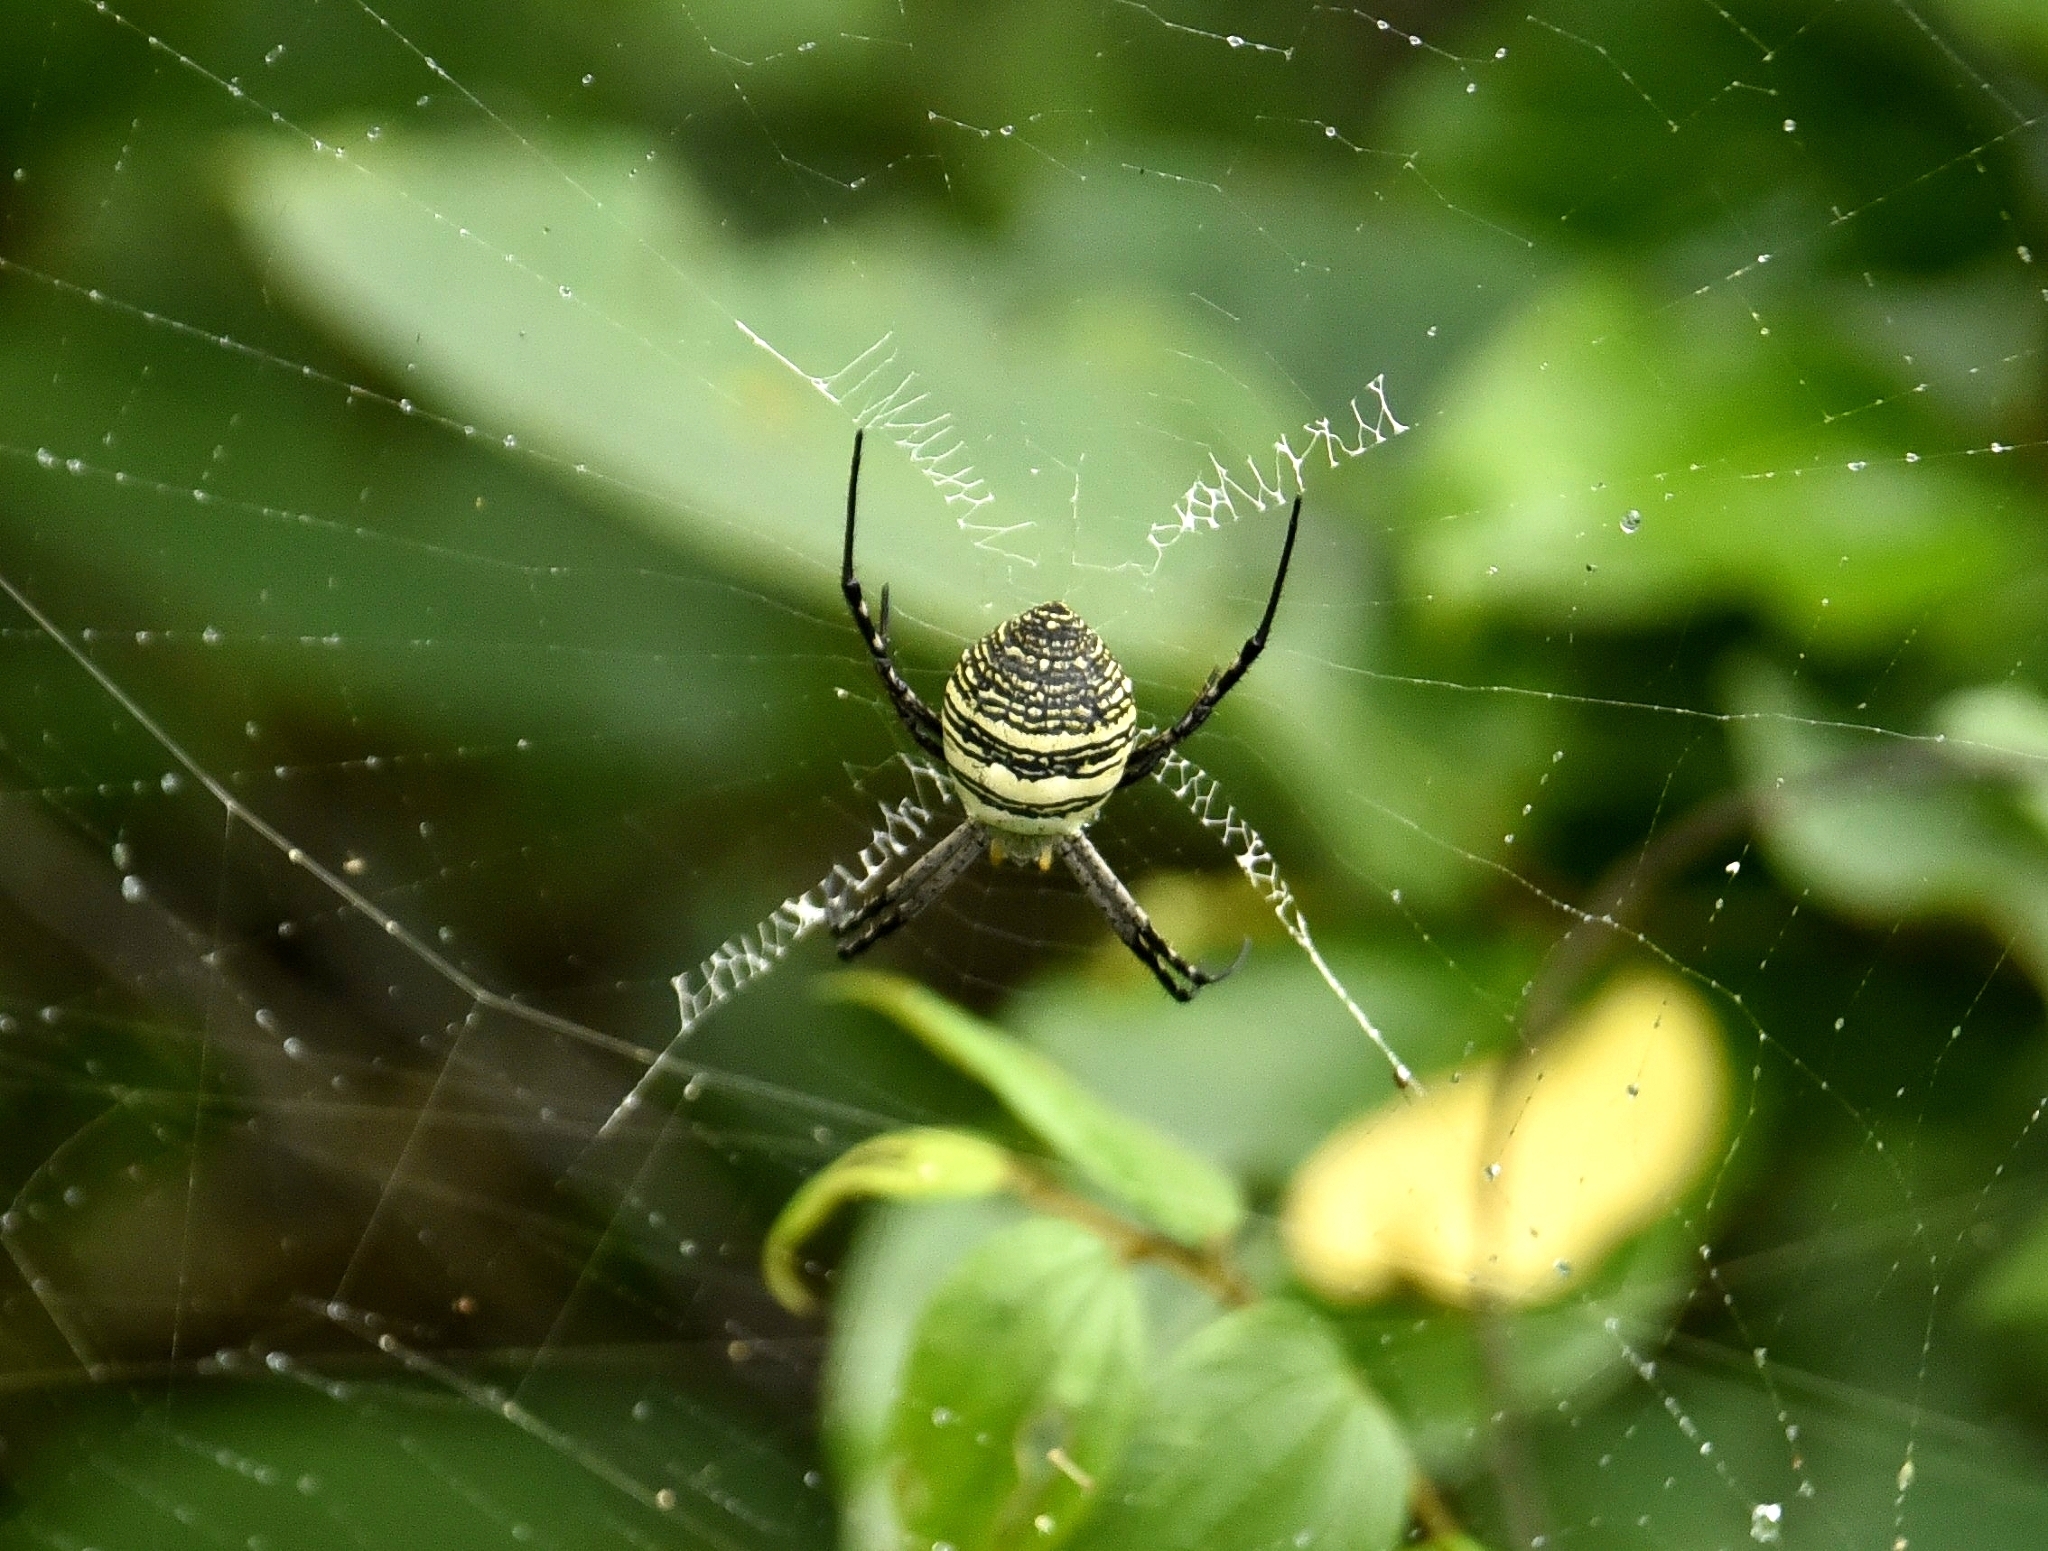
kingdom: Animalia
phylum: Arthropoda
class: Arachnida
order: Araneae
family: Araneidae
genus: Argiope
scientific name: Argiope aemula
